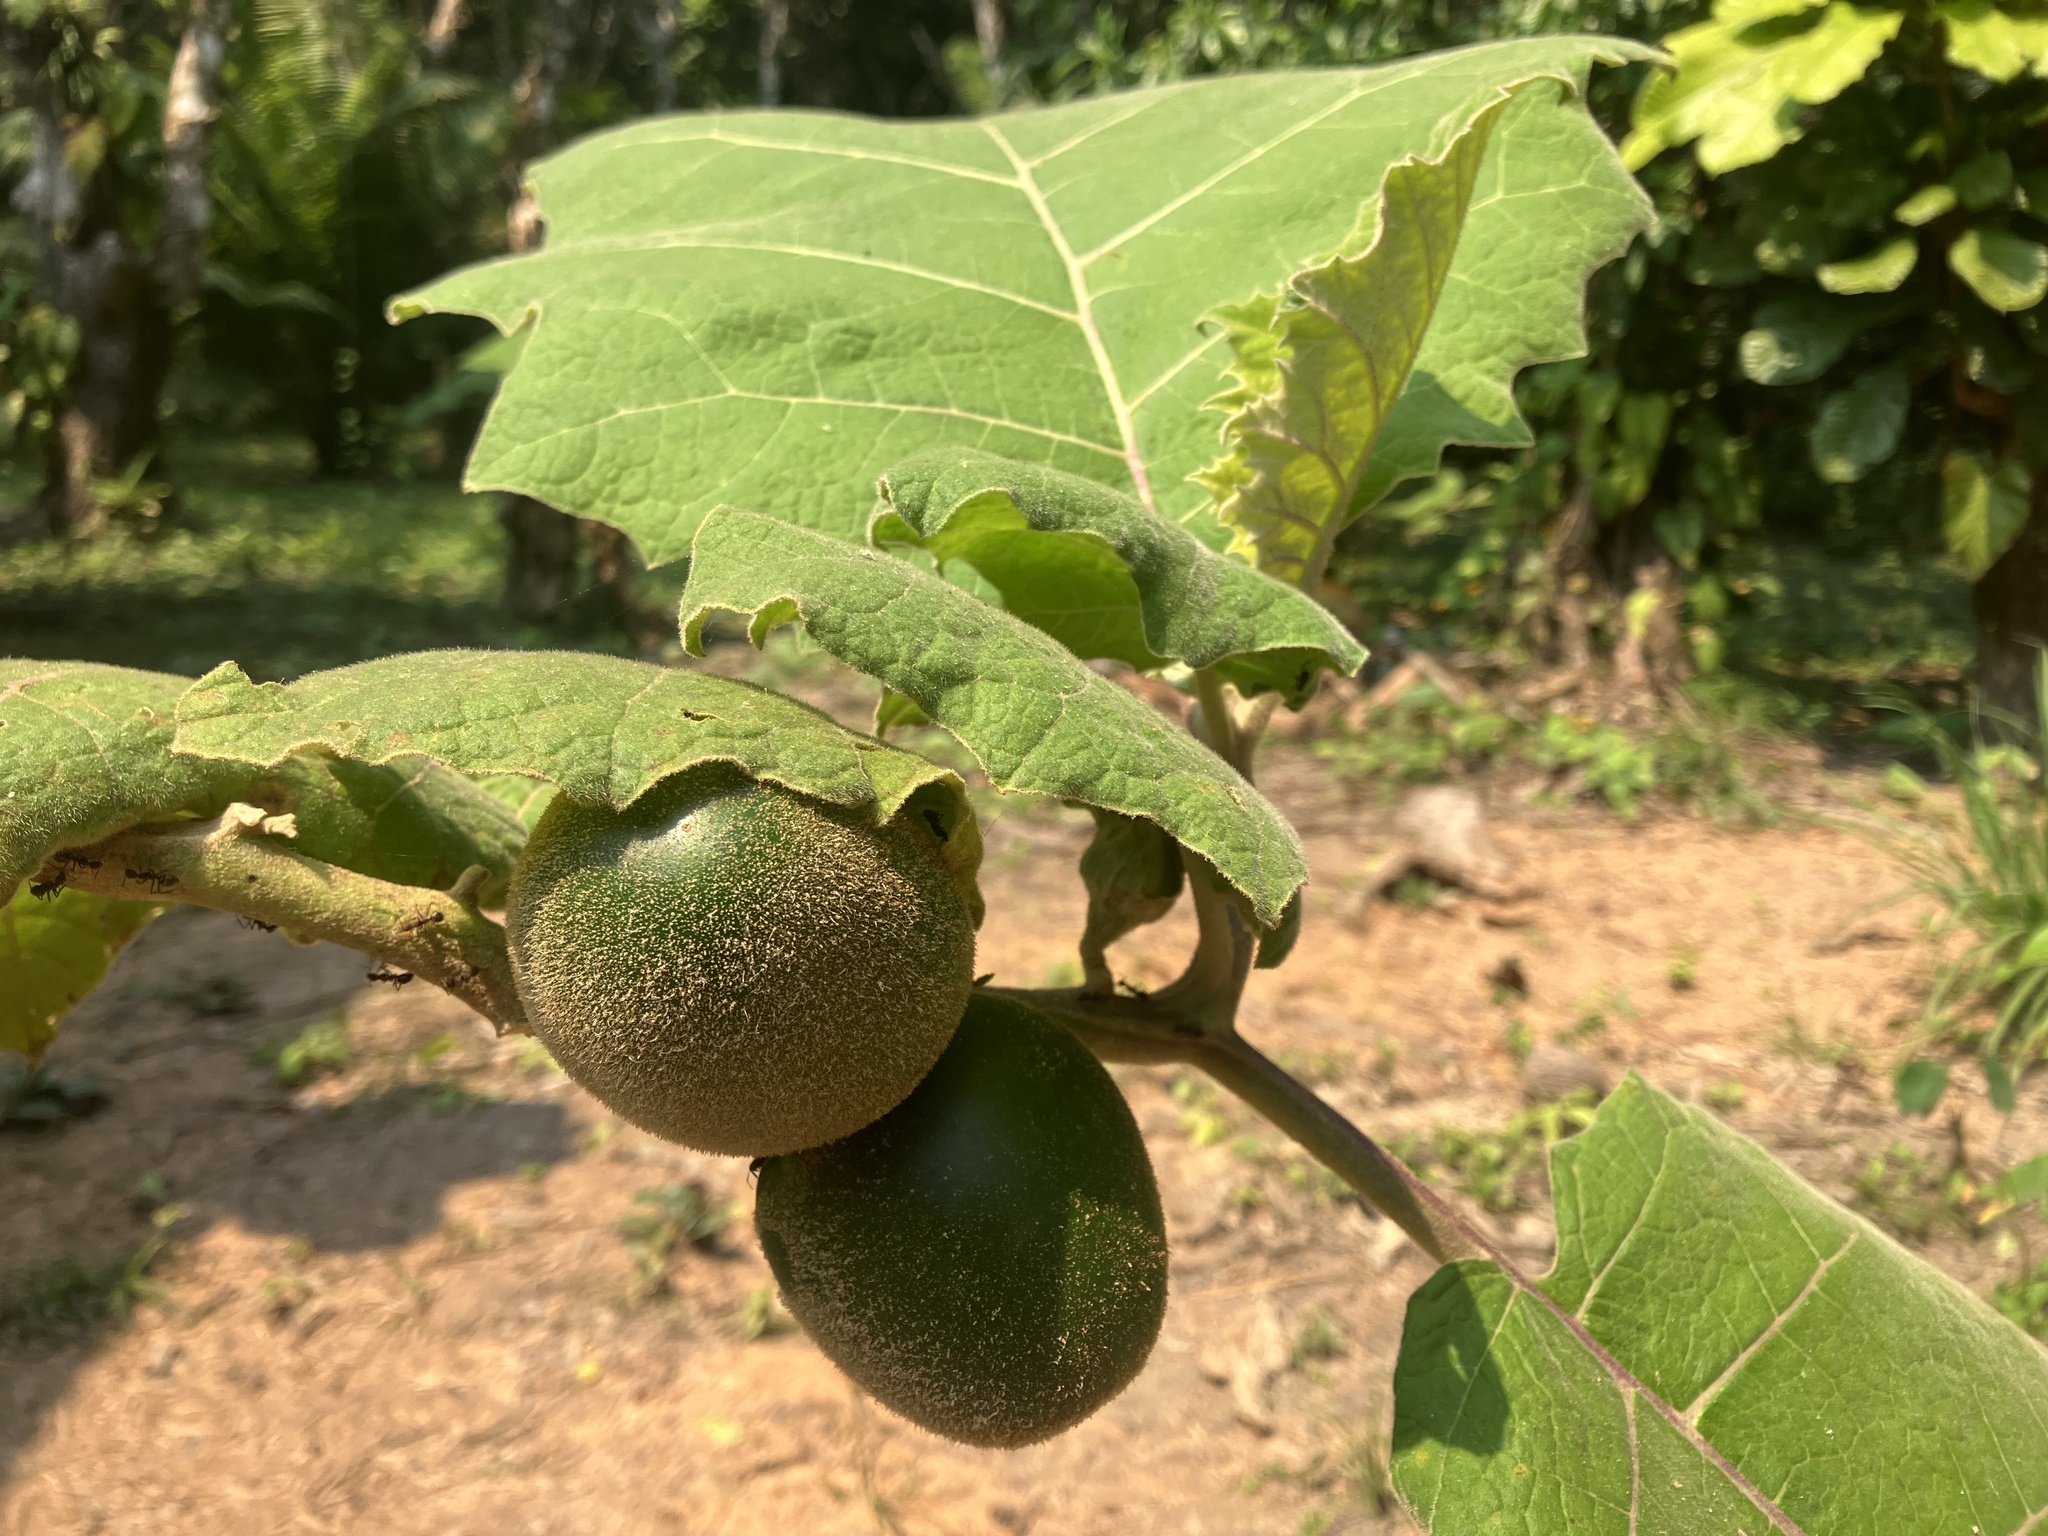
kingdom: Plantae
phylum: Tracheophyta
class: Magnoliopsida
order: Solanales
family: Solanaceae
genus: Solanum
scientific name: Solanum sessiliflorum
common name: Orinoco-apple
